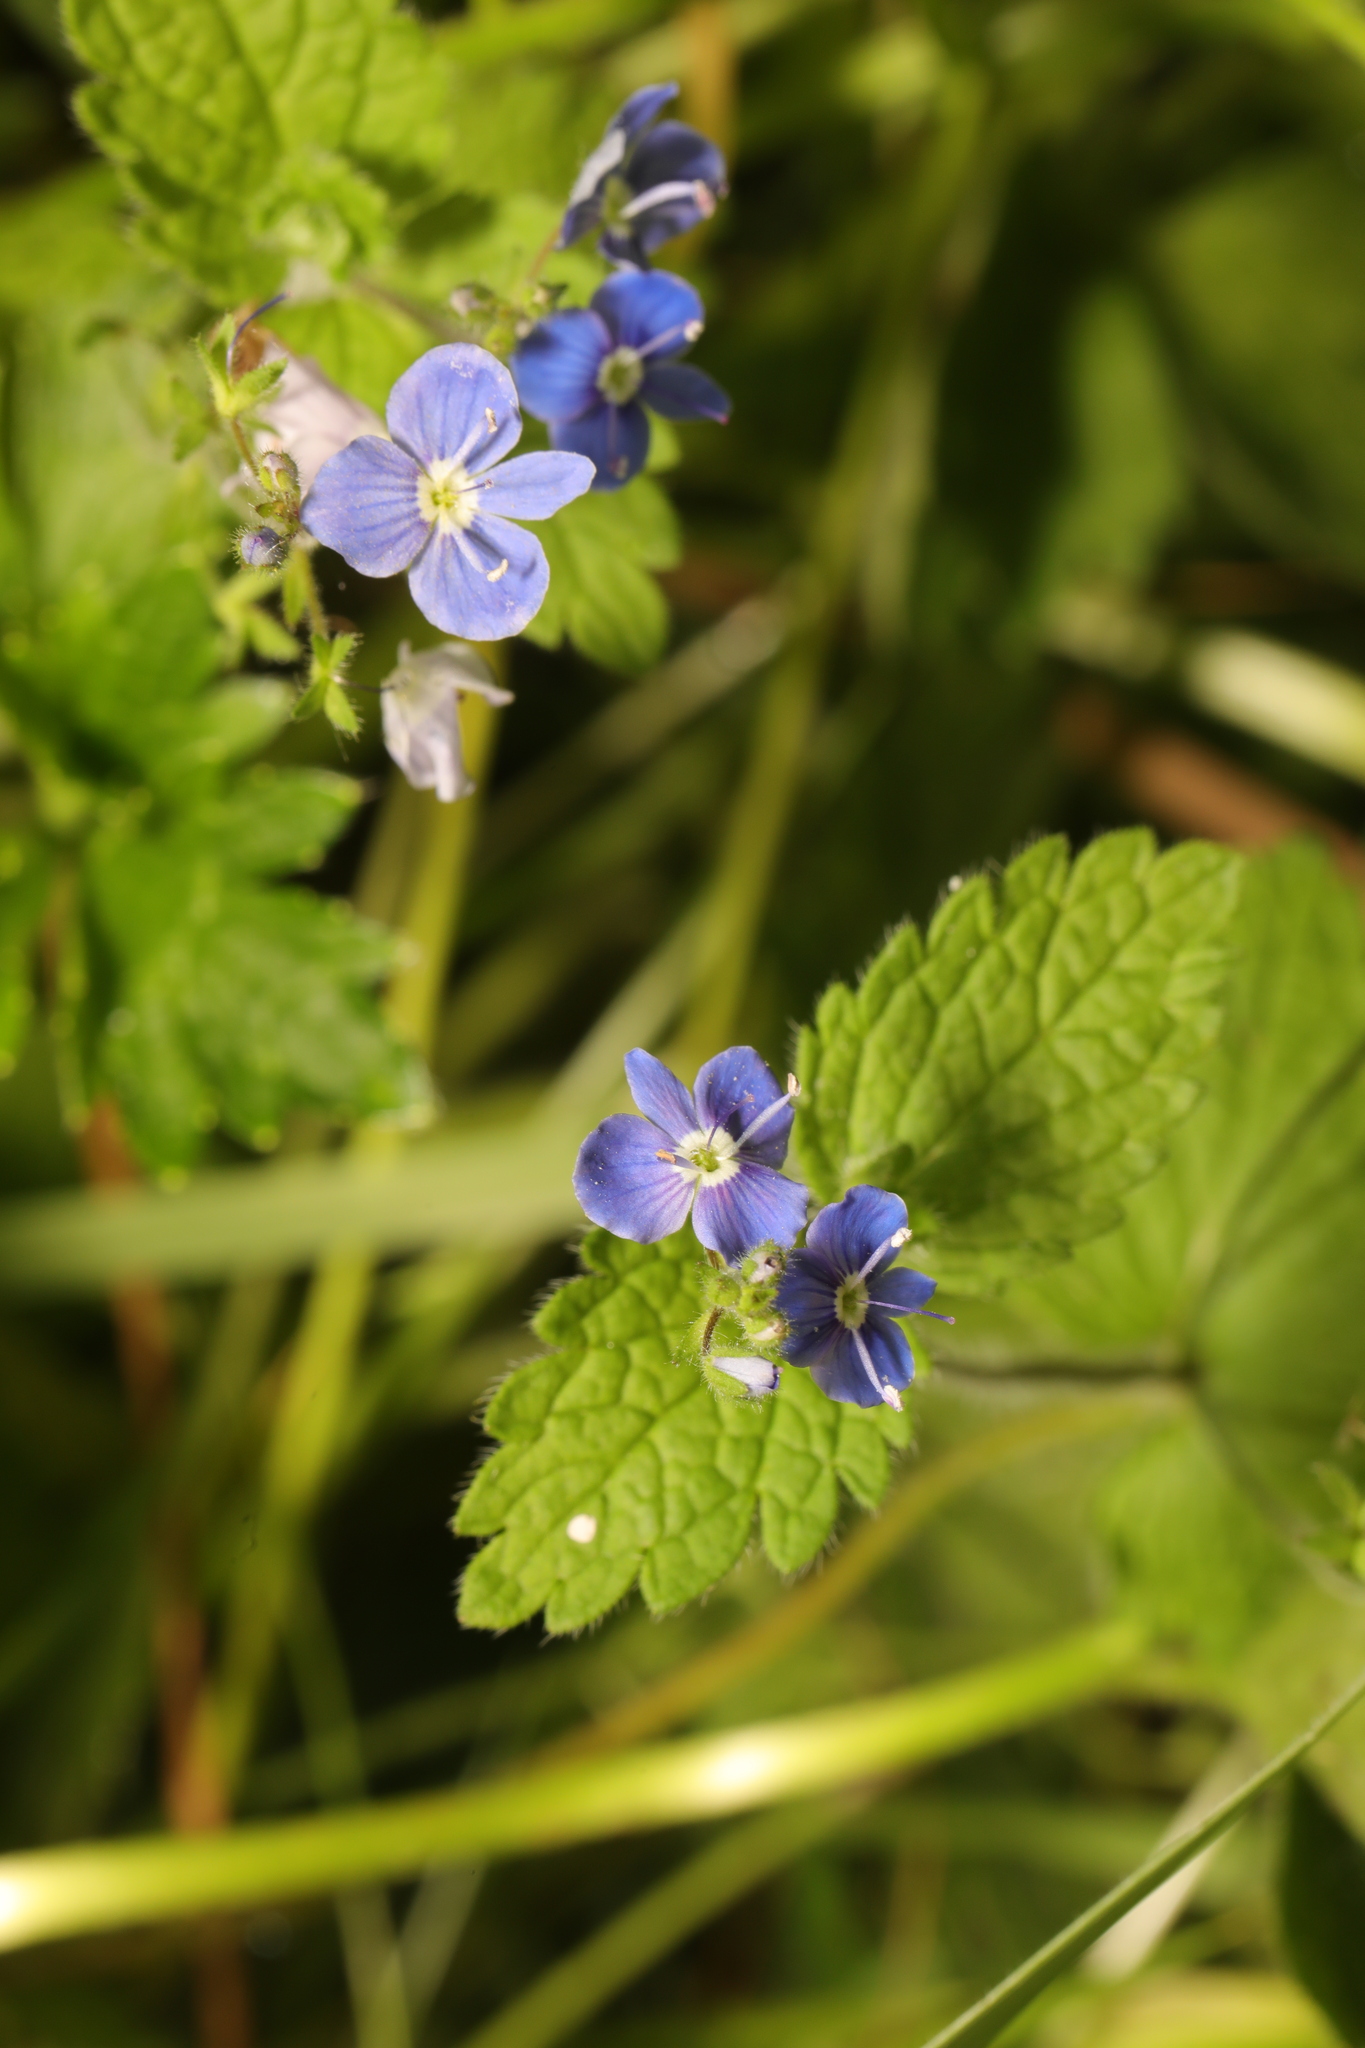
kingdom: Plantae
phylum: Tracheophyta
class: Magnoliopsida
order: Lamiales
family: Plantaginaceae
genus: Veronica
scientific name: Veronica chamaedrys
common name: Germander speedwell
